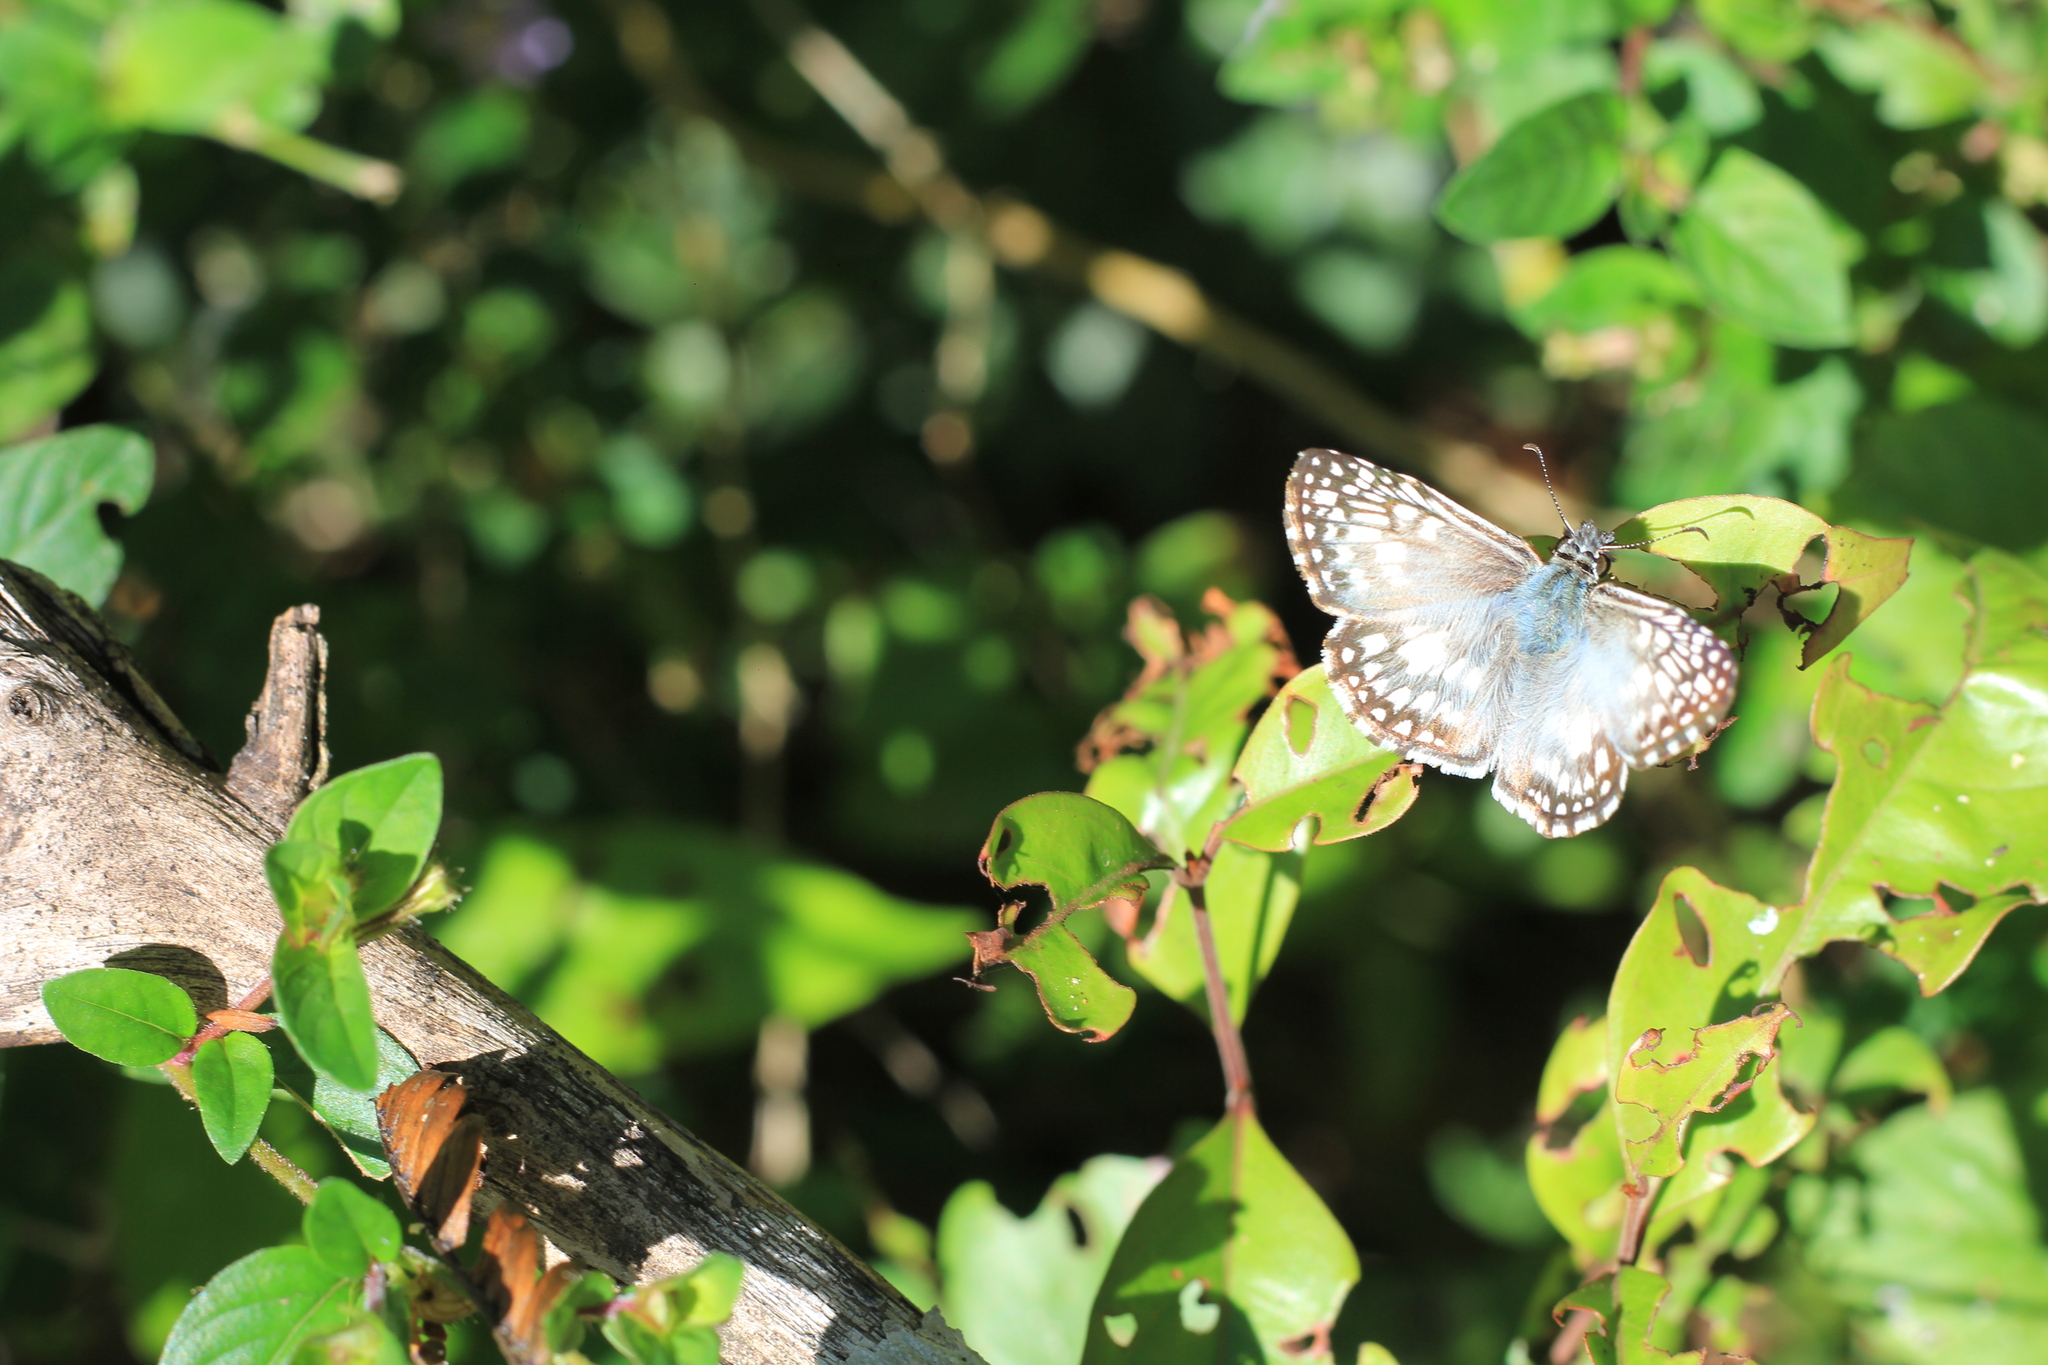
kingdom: Animalia
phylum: Arthropoda
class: Insecta
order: Lepidoptera
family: Hesperiidae
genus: Pyrgus
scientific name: Pyrgus oileus
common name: Tropical checkered-skipper
